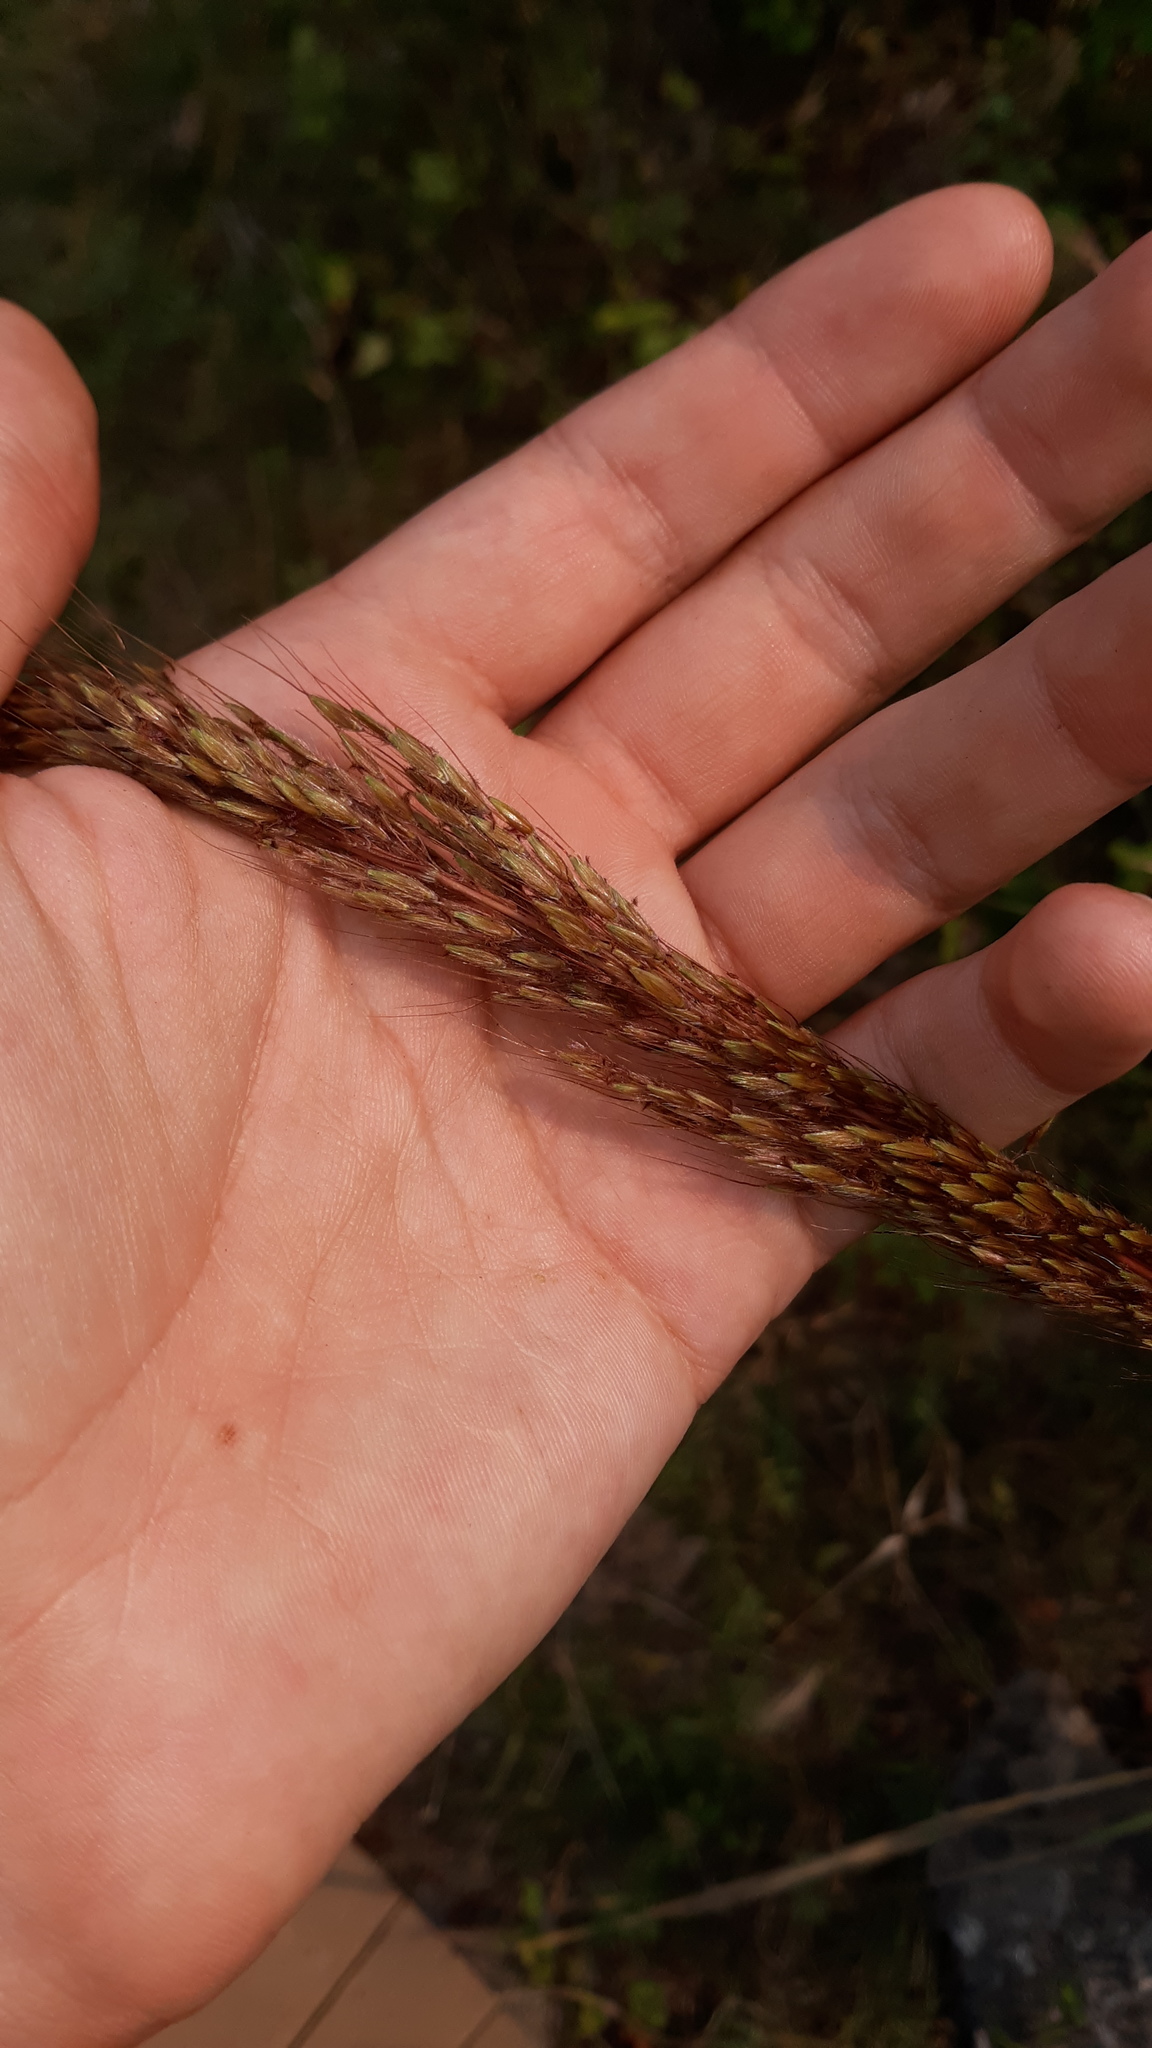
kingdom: Plantae
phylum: Tracheophyta
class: Liliopsida
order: Poales
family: Poaceae
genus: Sorghastrum
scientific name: Sorghastrum nutans
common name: Indian grass
